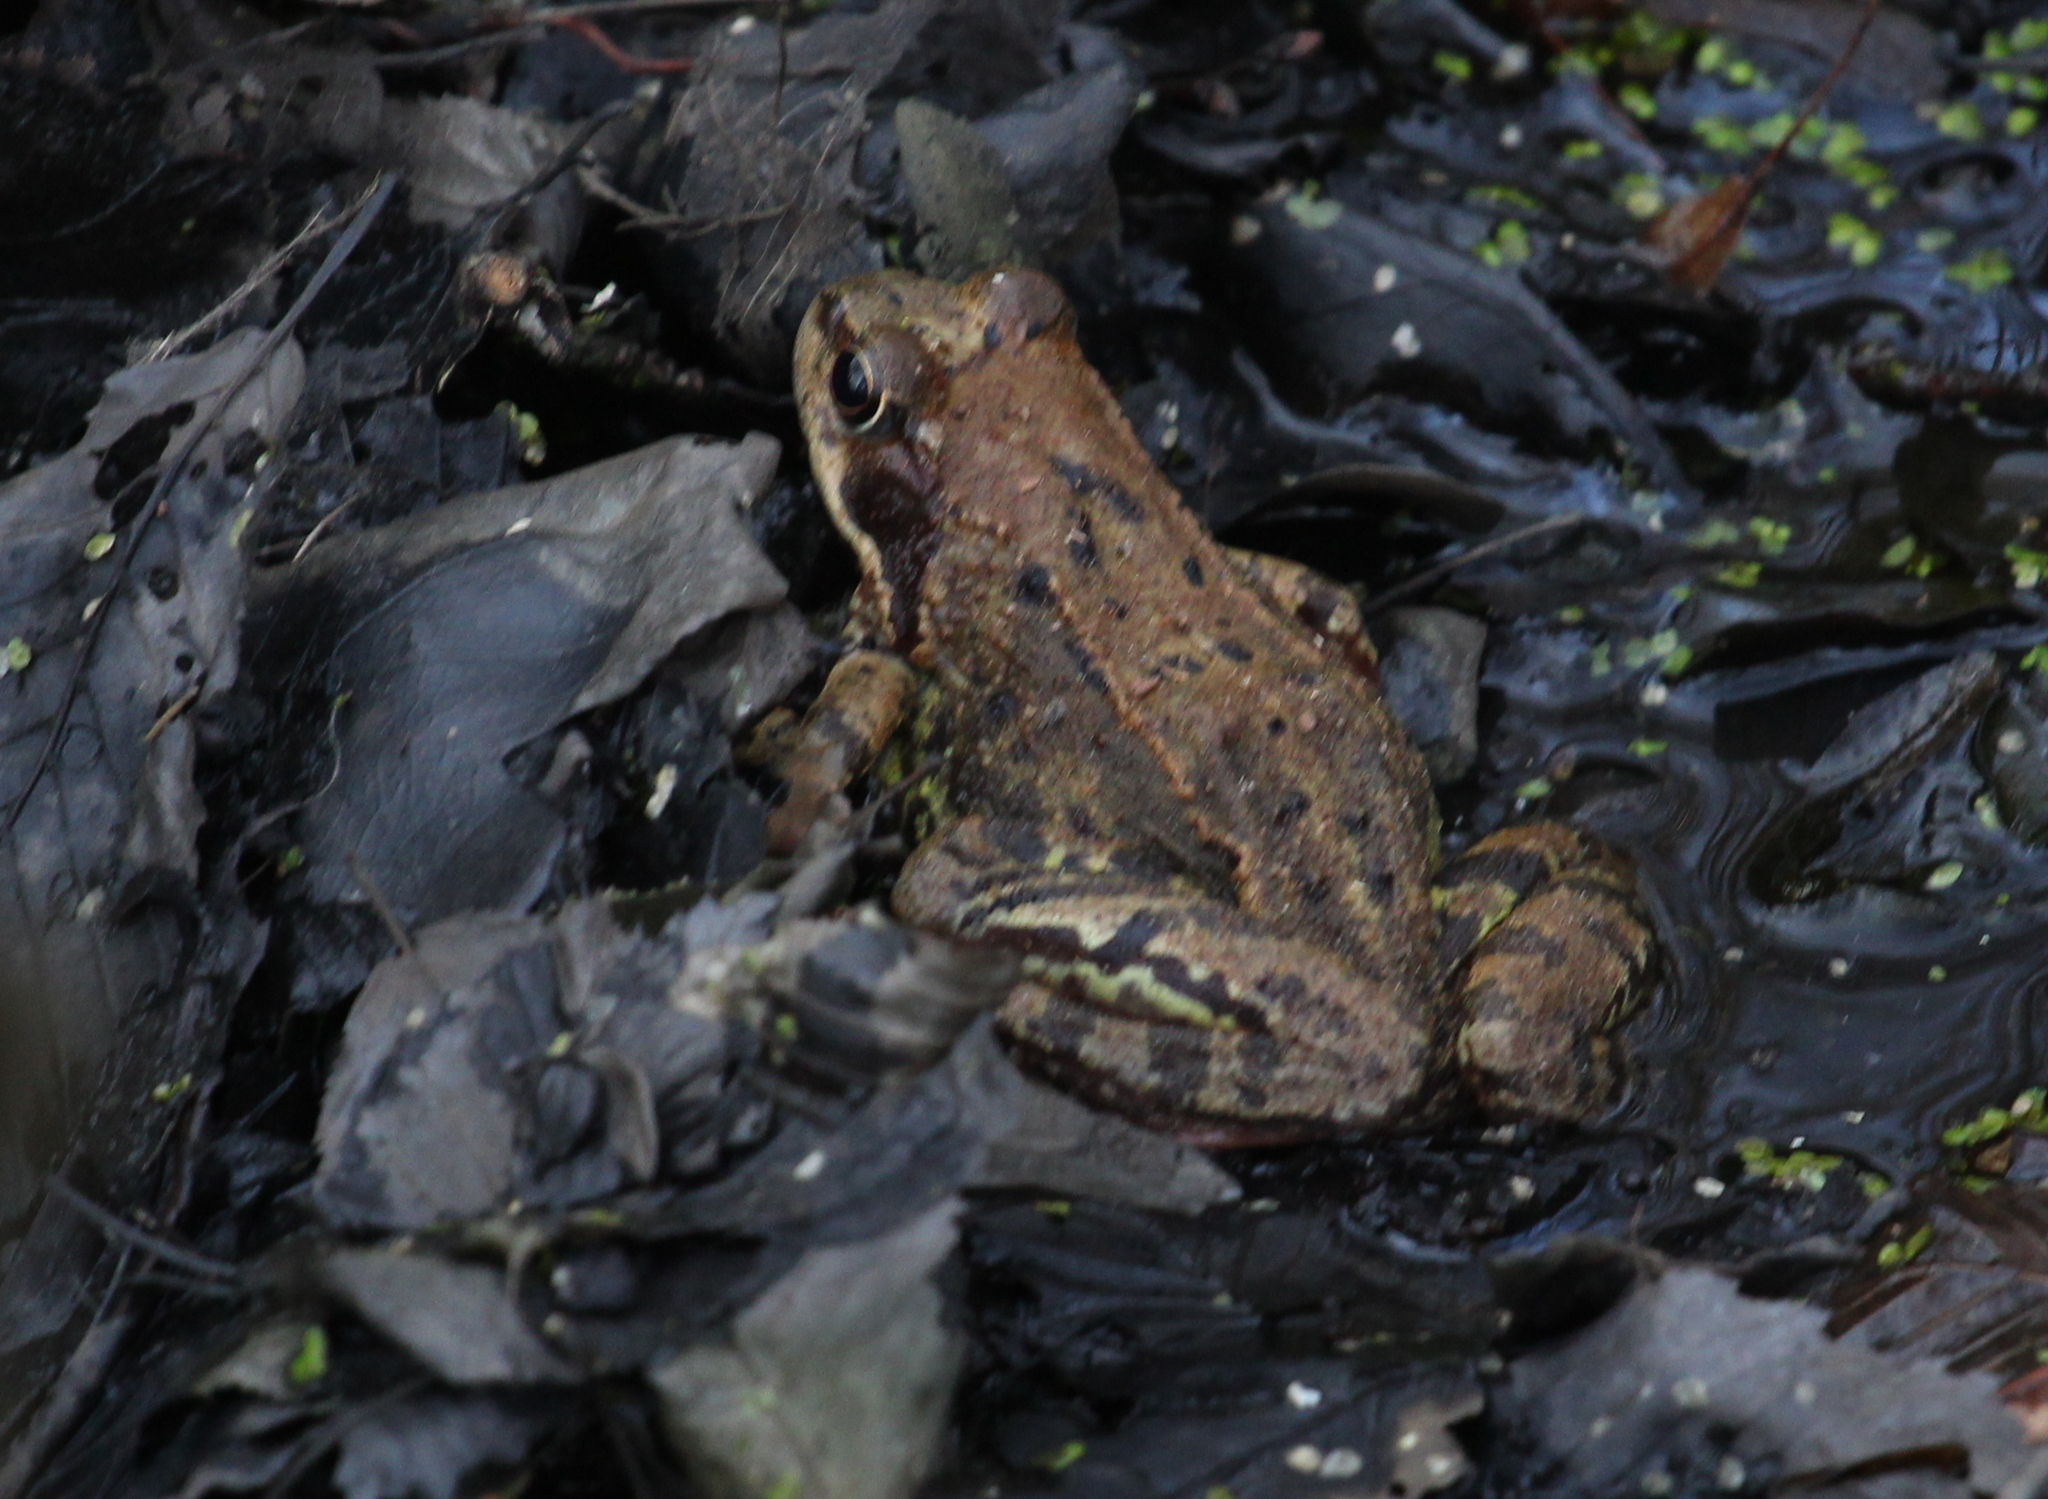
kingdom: Animalia
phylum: Chordata
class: Amphibia
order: Anura
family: Ranidae
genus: Rana
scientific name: Rana temporaria
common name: Common frog
